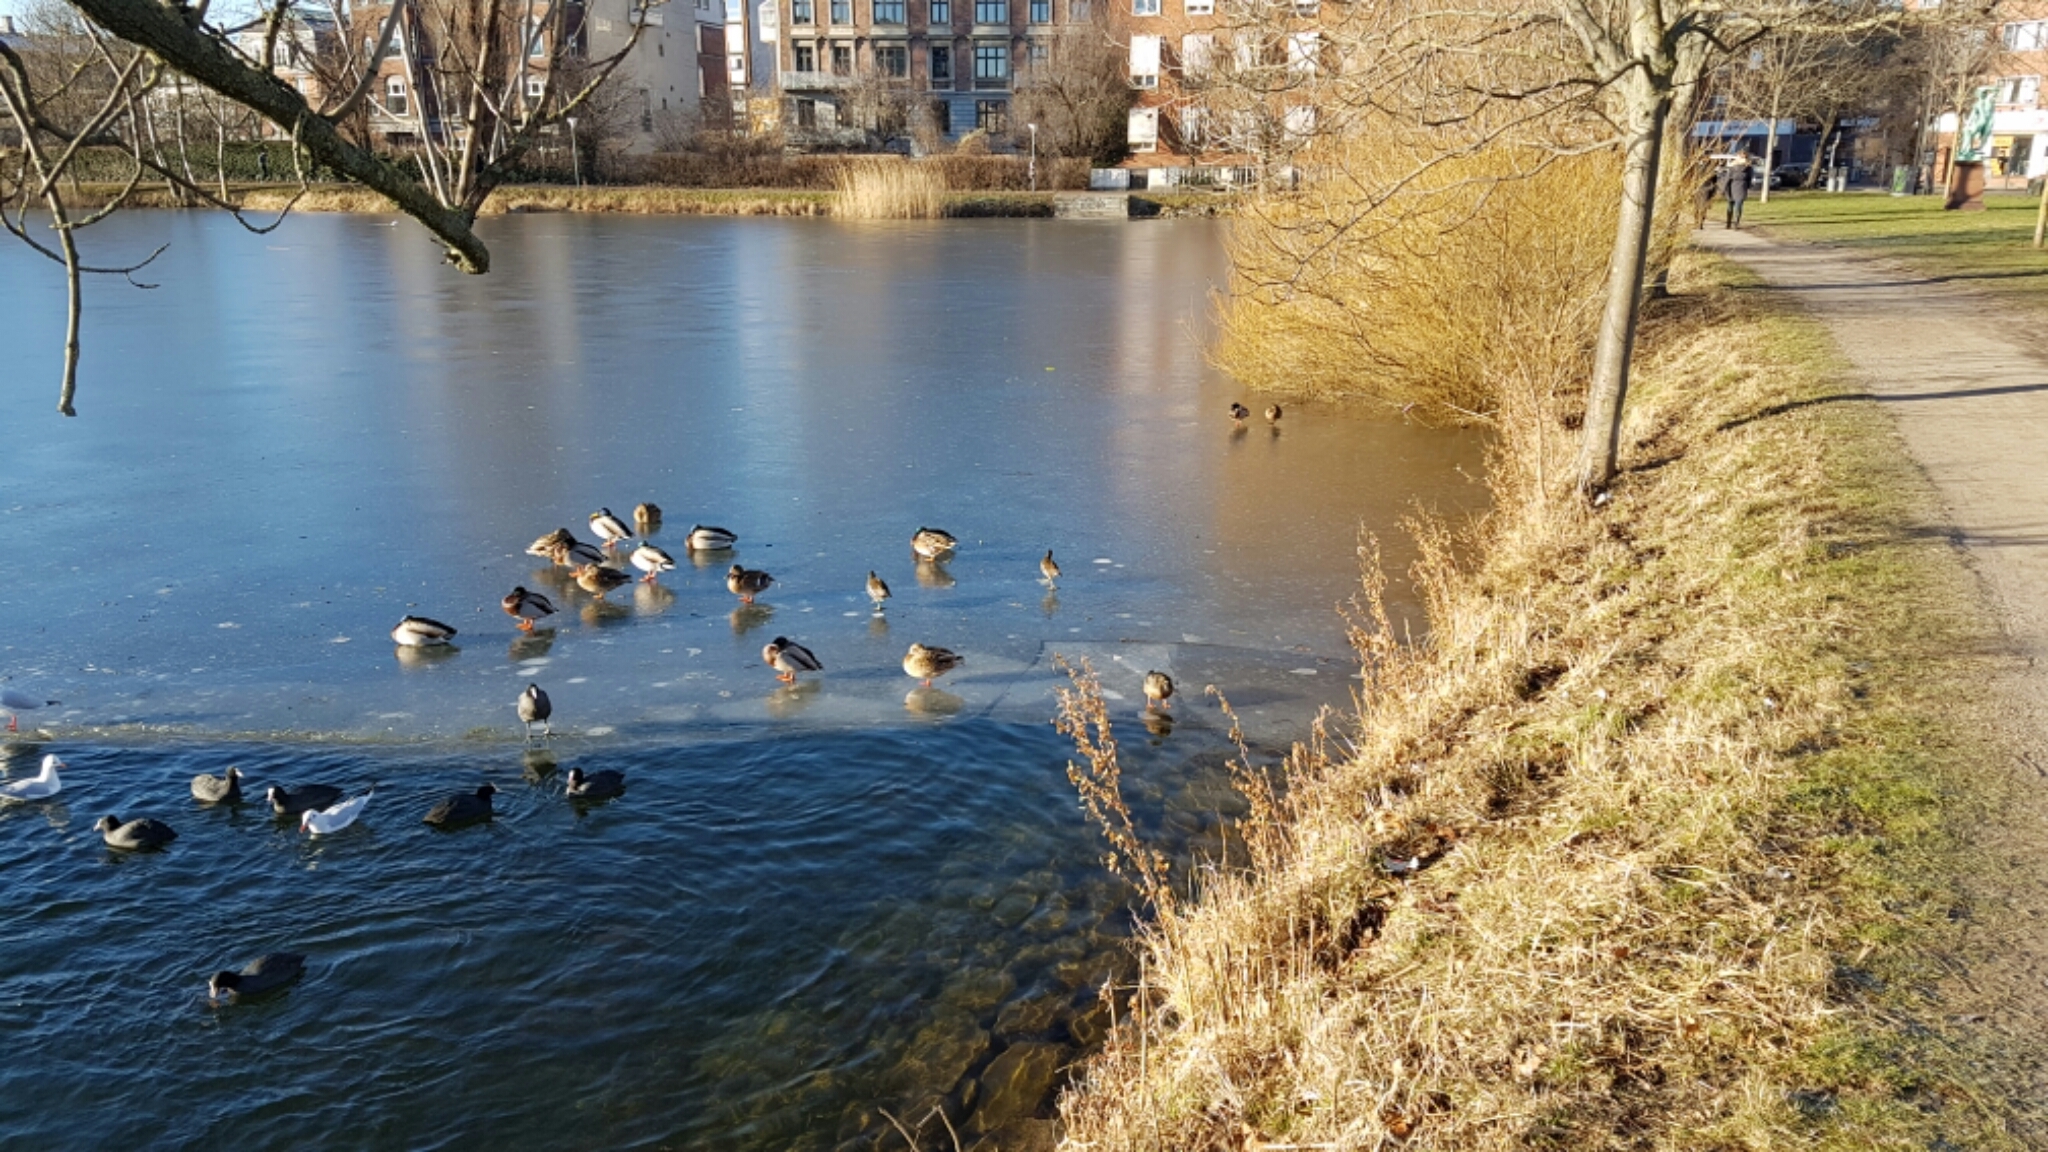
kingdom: Animalia
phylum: Chordata
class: Aves
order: Gruiformes
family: Rallidae
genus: Gallinula
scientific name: Gallinula chloropus
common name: Common moorhen
